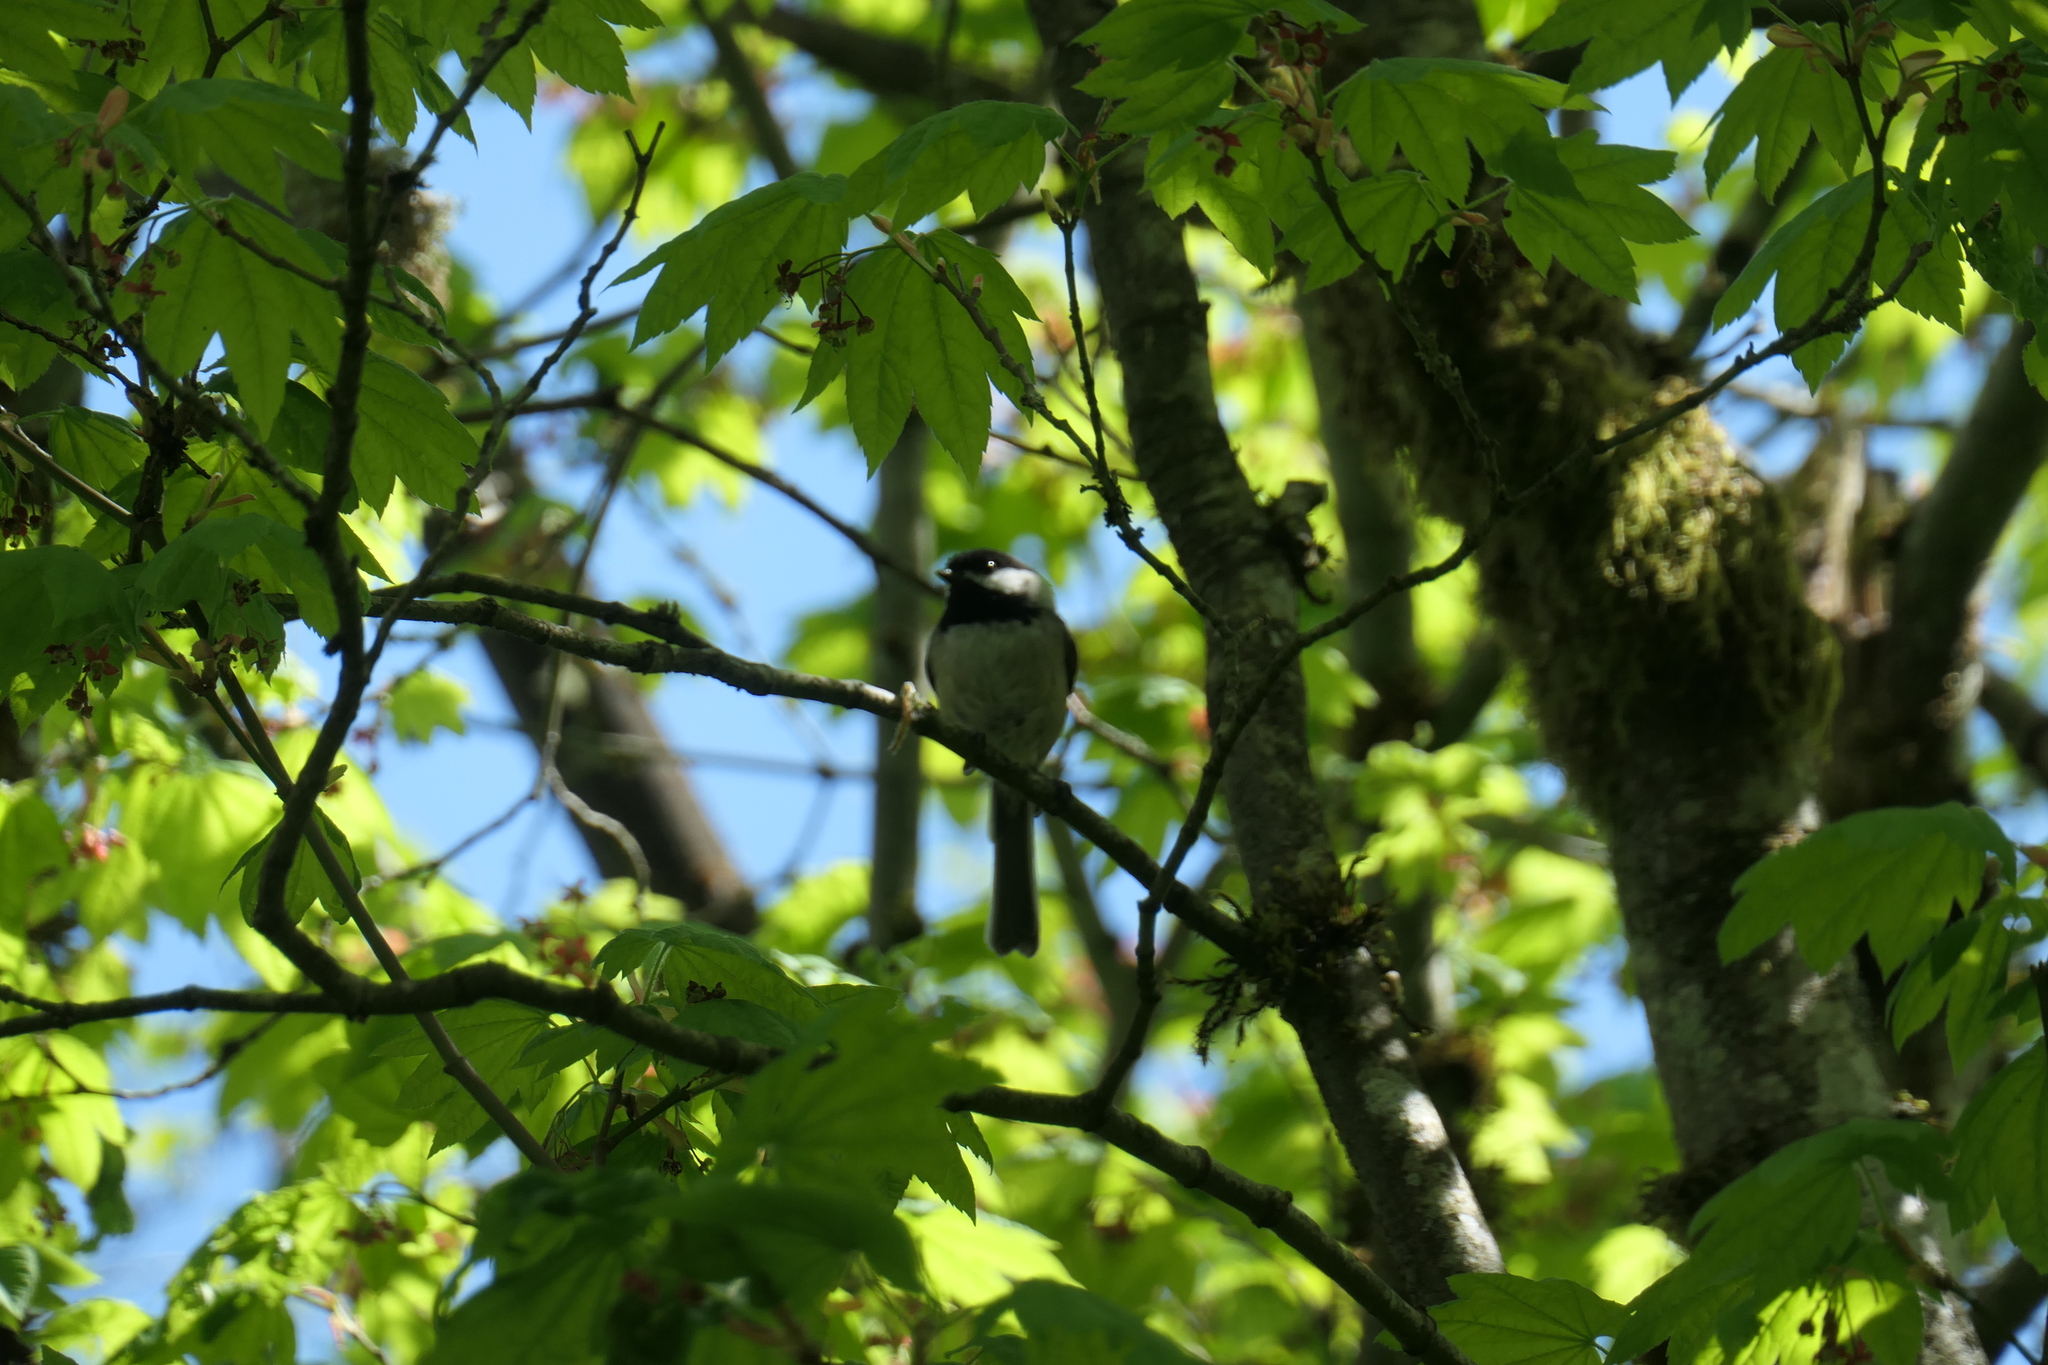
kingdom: Animalia
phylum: Chordata
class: Aves
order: Passeriformes
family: Paridae
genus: Poecile
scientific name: Poecile atricapillus
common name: Black-capped chickadee
